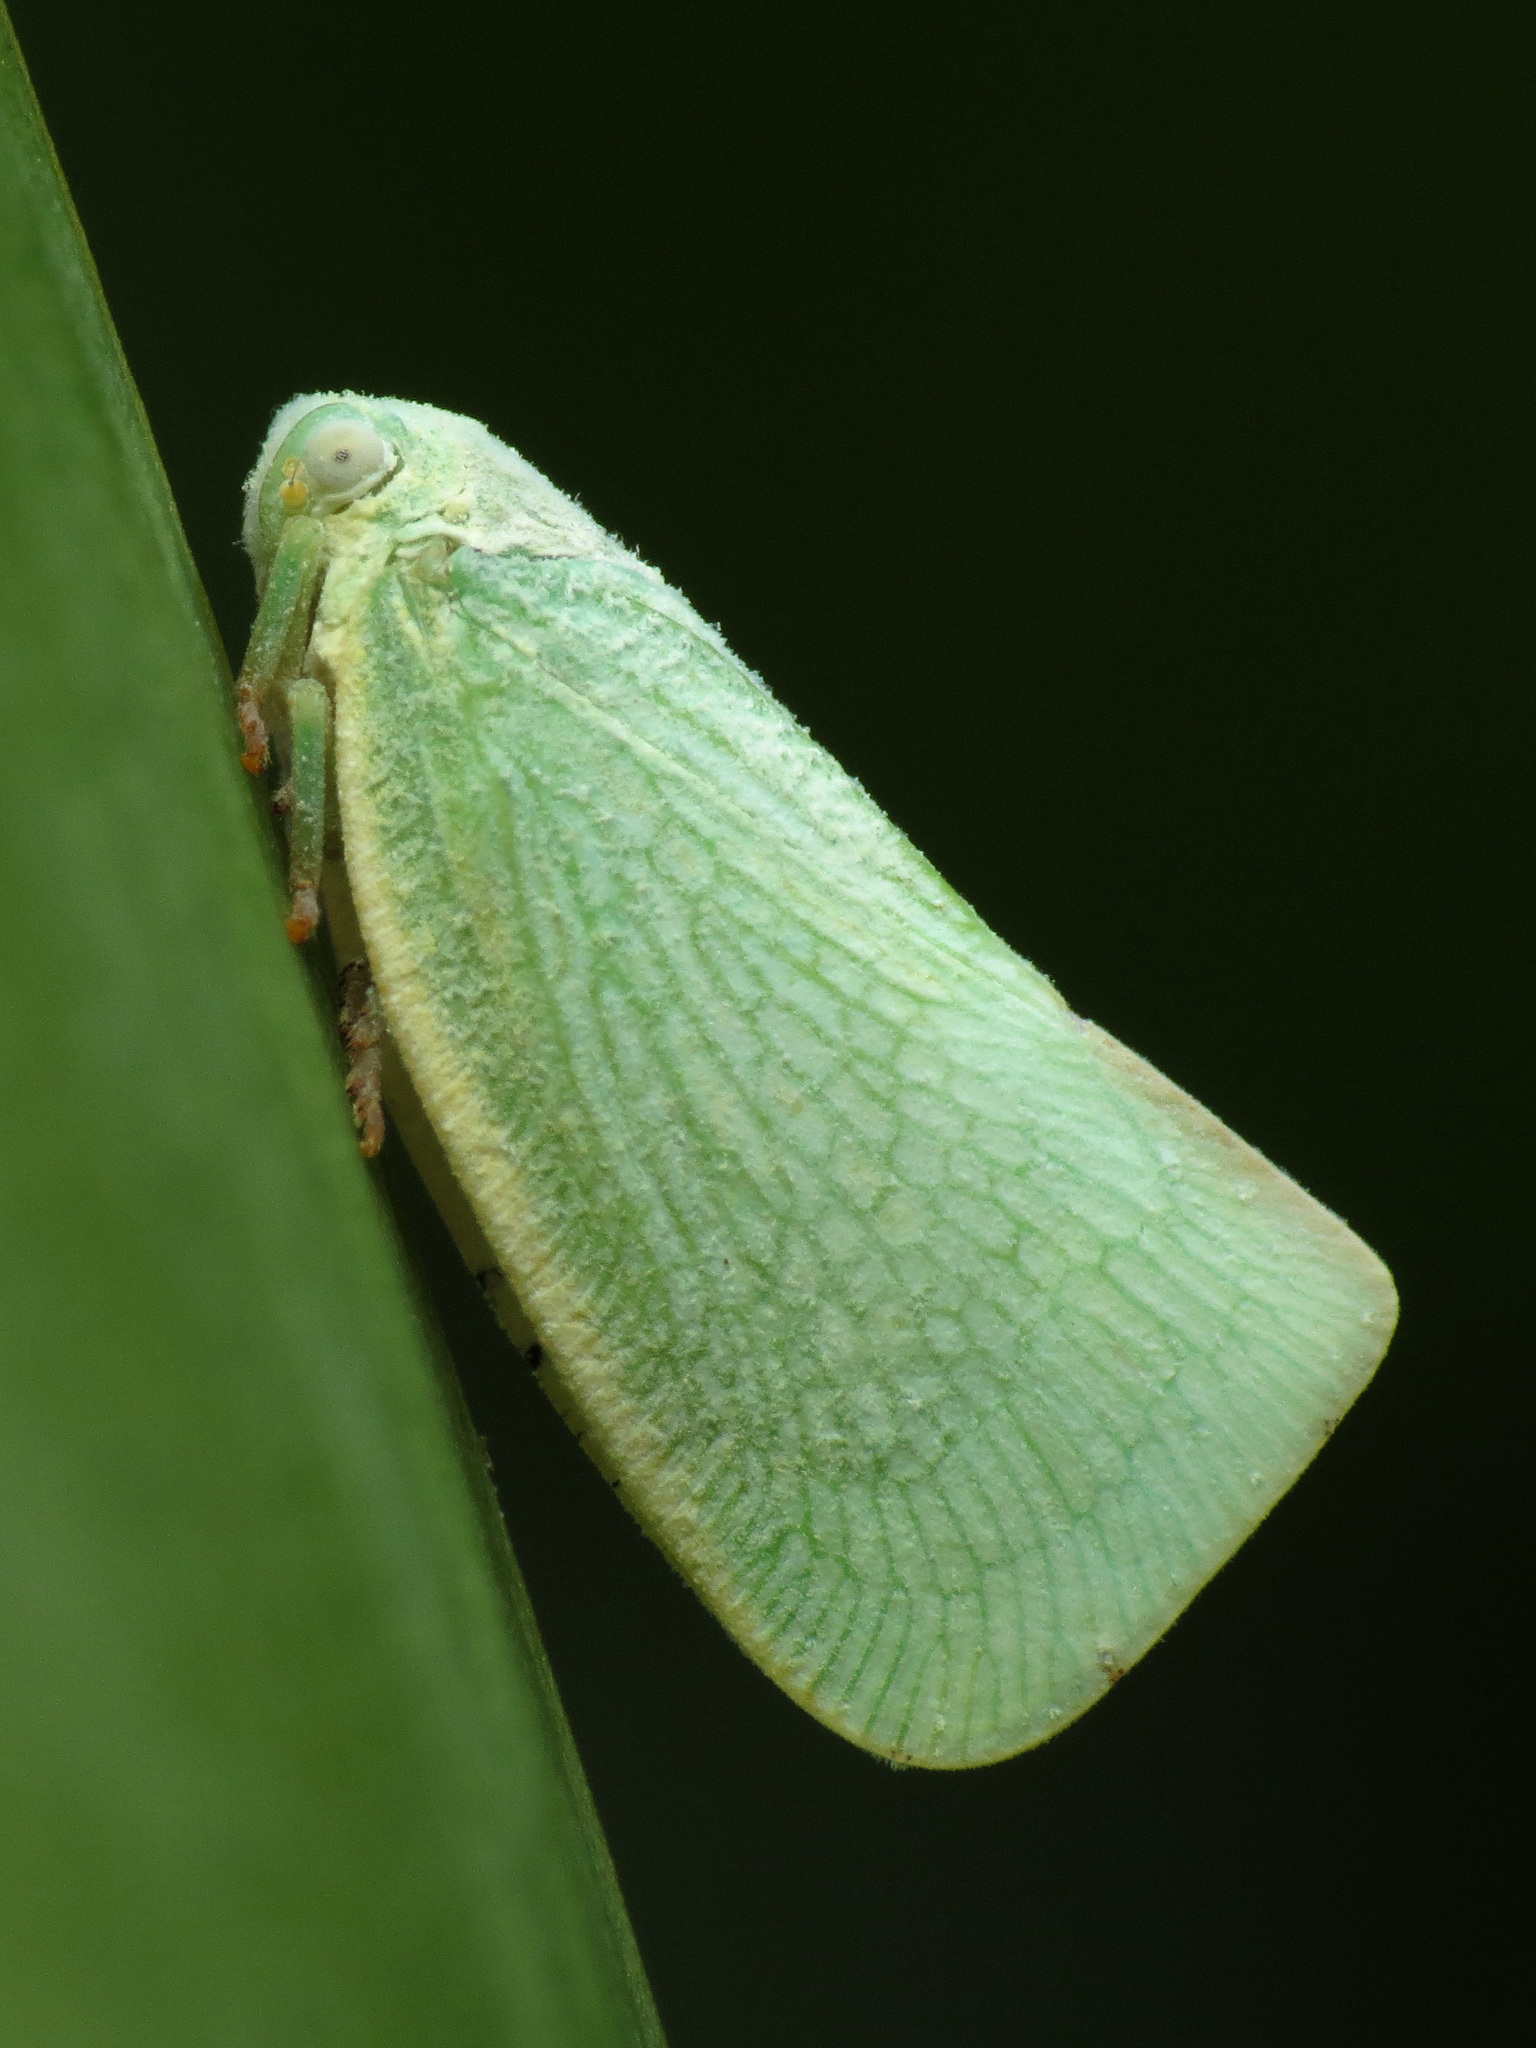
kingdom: Animalia
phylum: Arthropoda
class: Insecta
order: Hemiptera
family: Flatidae
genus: Flatormenis
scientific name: Flatormenis proxima
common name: Northern flatid planthopper
